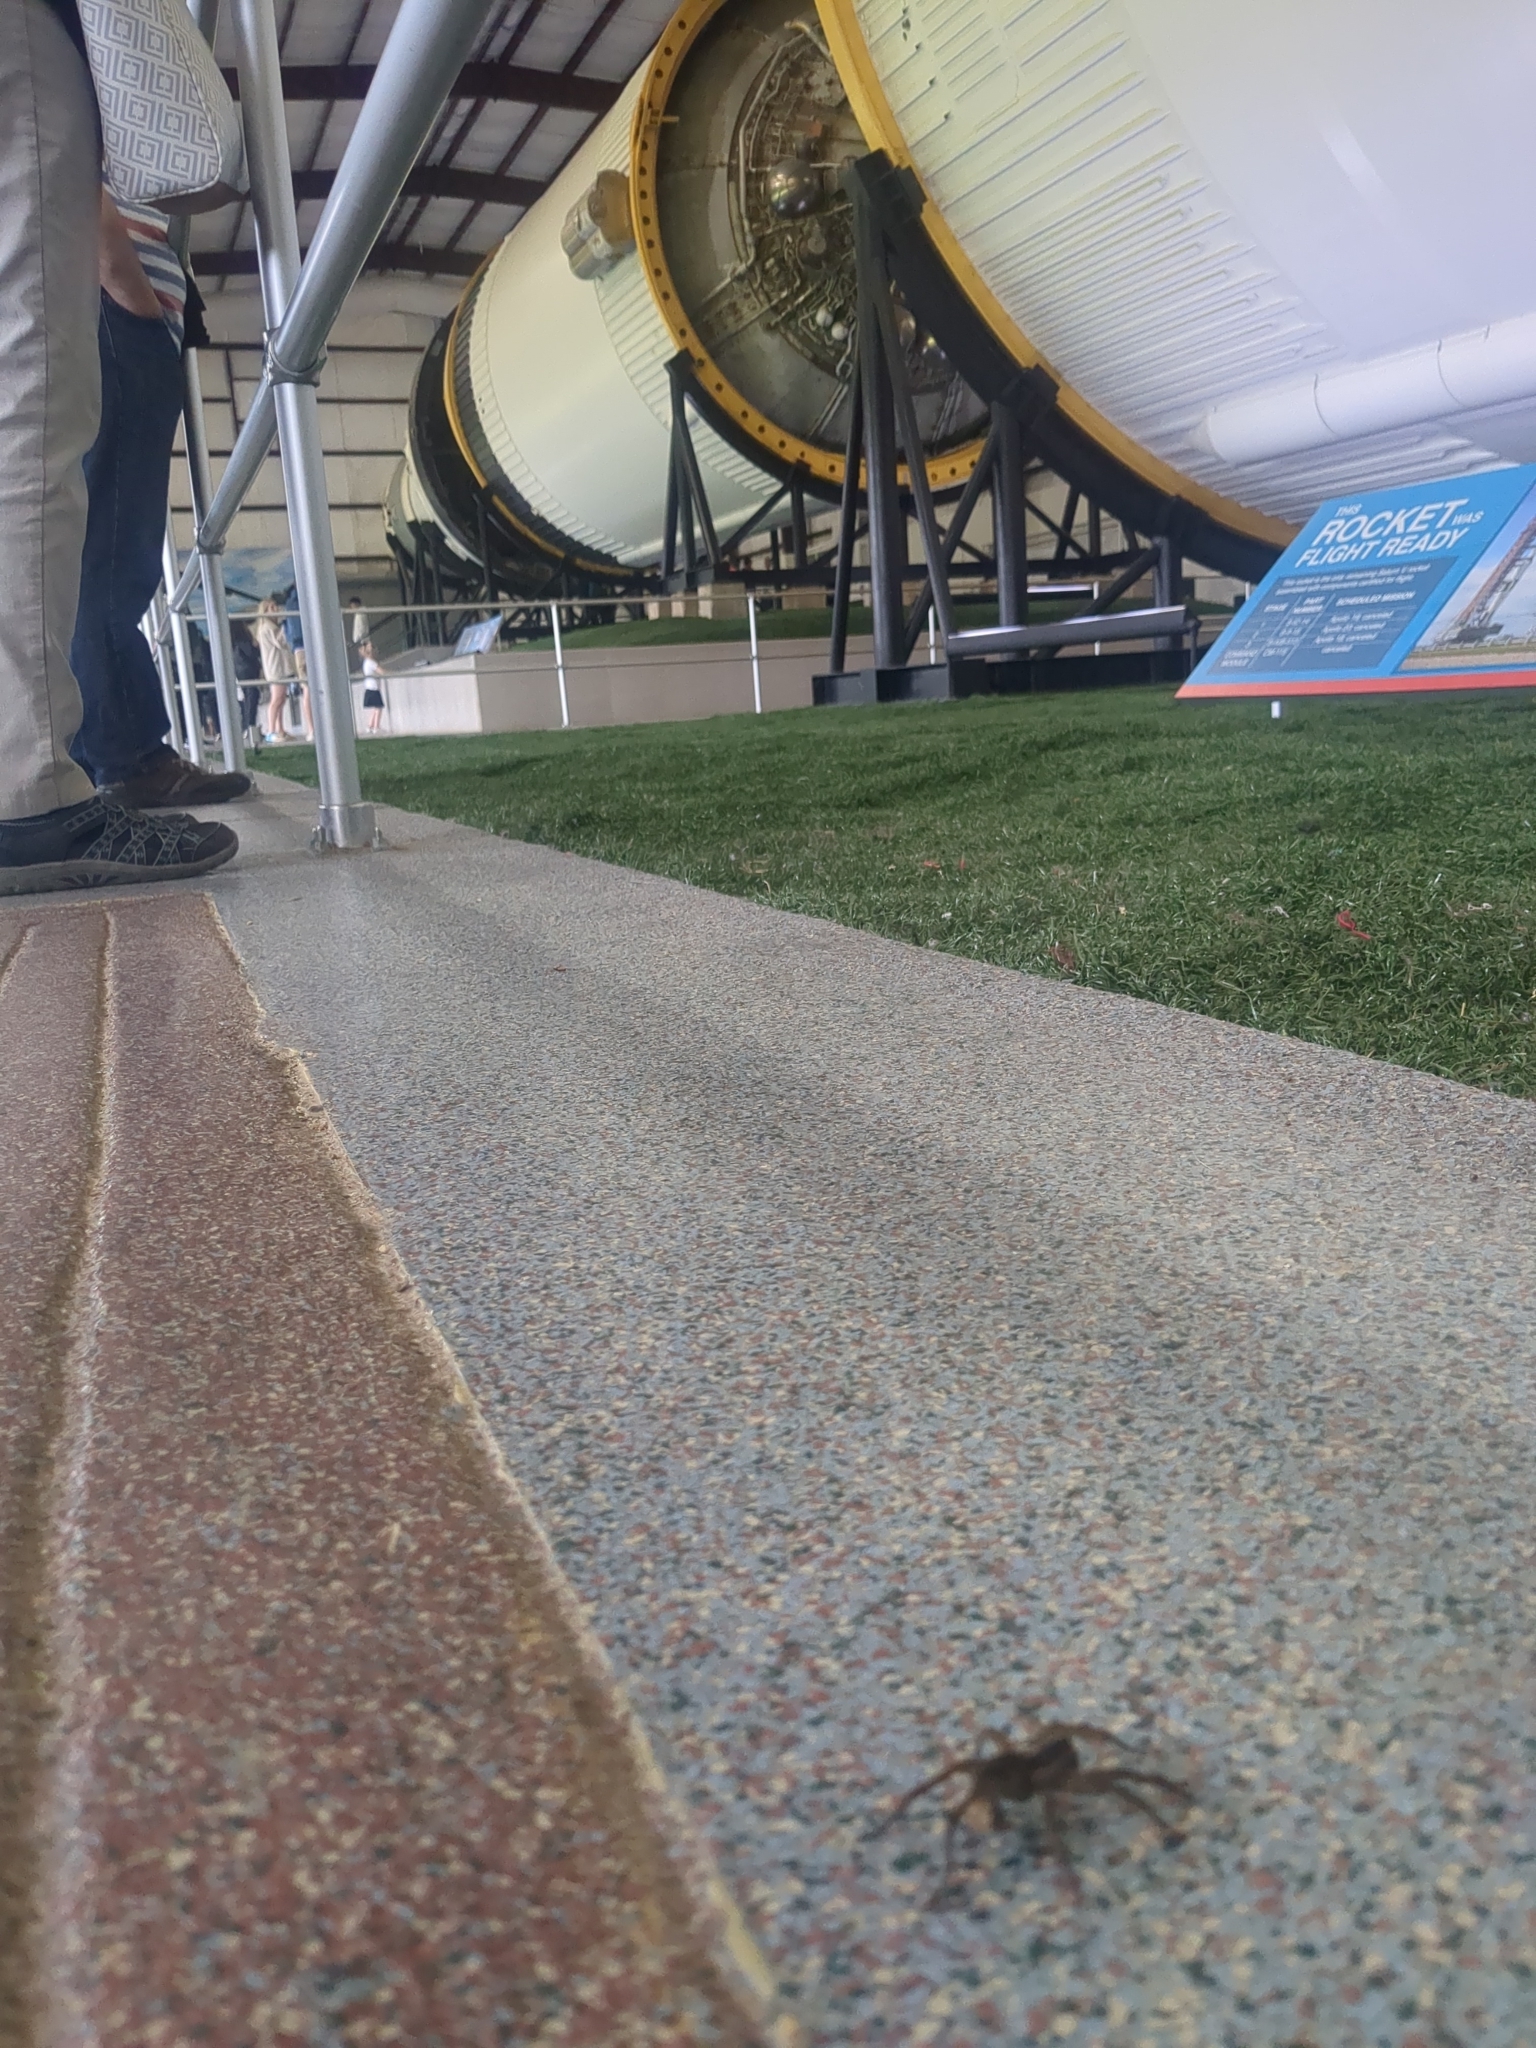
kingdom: Animalia
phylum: Arthropoda
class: Arachnida
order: Araneae
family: Lycosidae
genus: Tigrosa
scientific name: Tigrosa annexa
